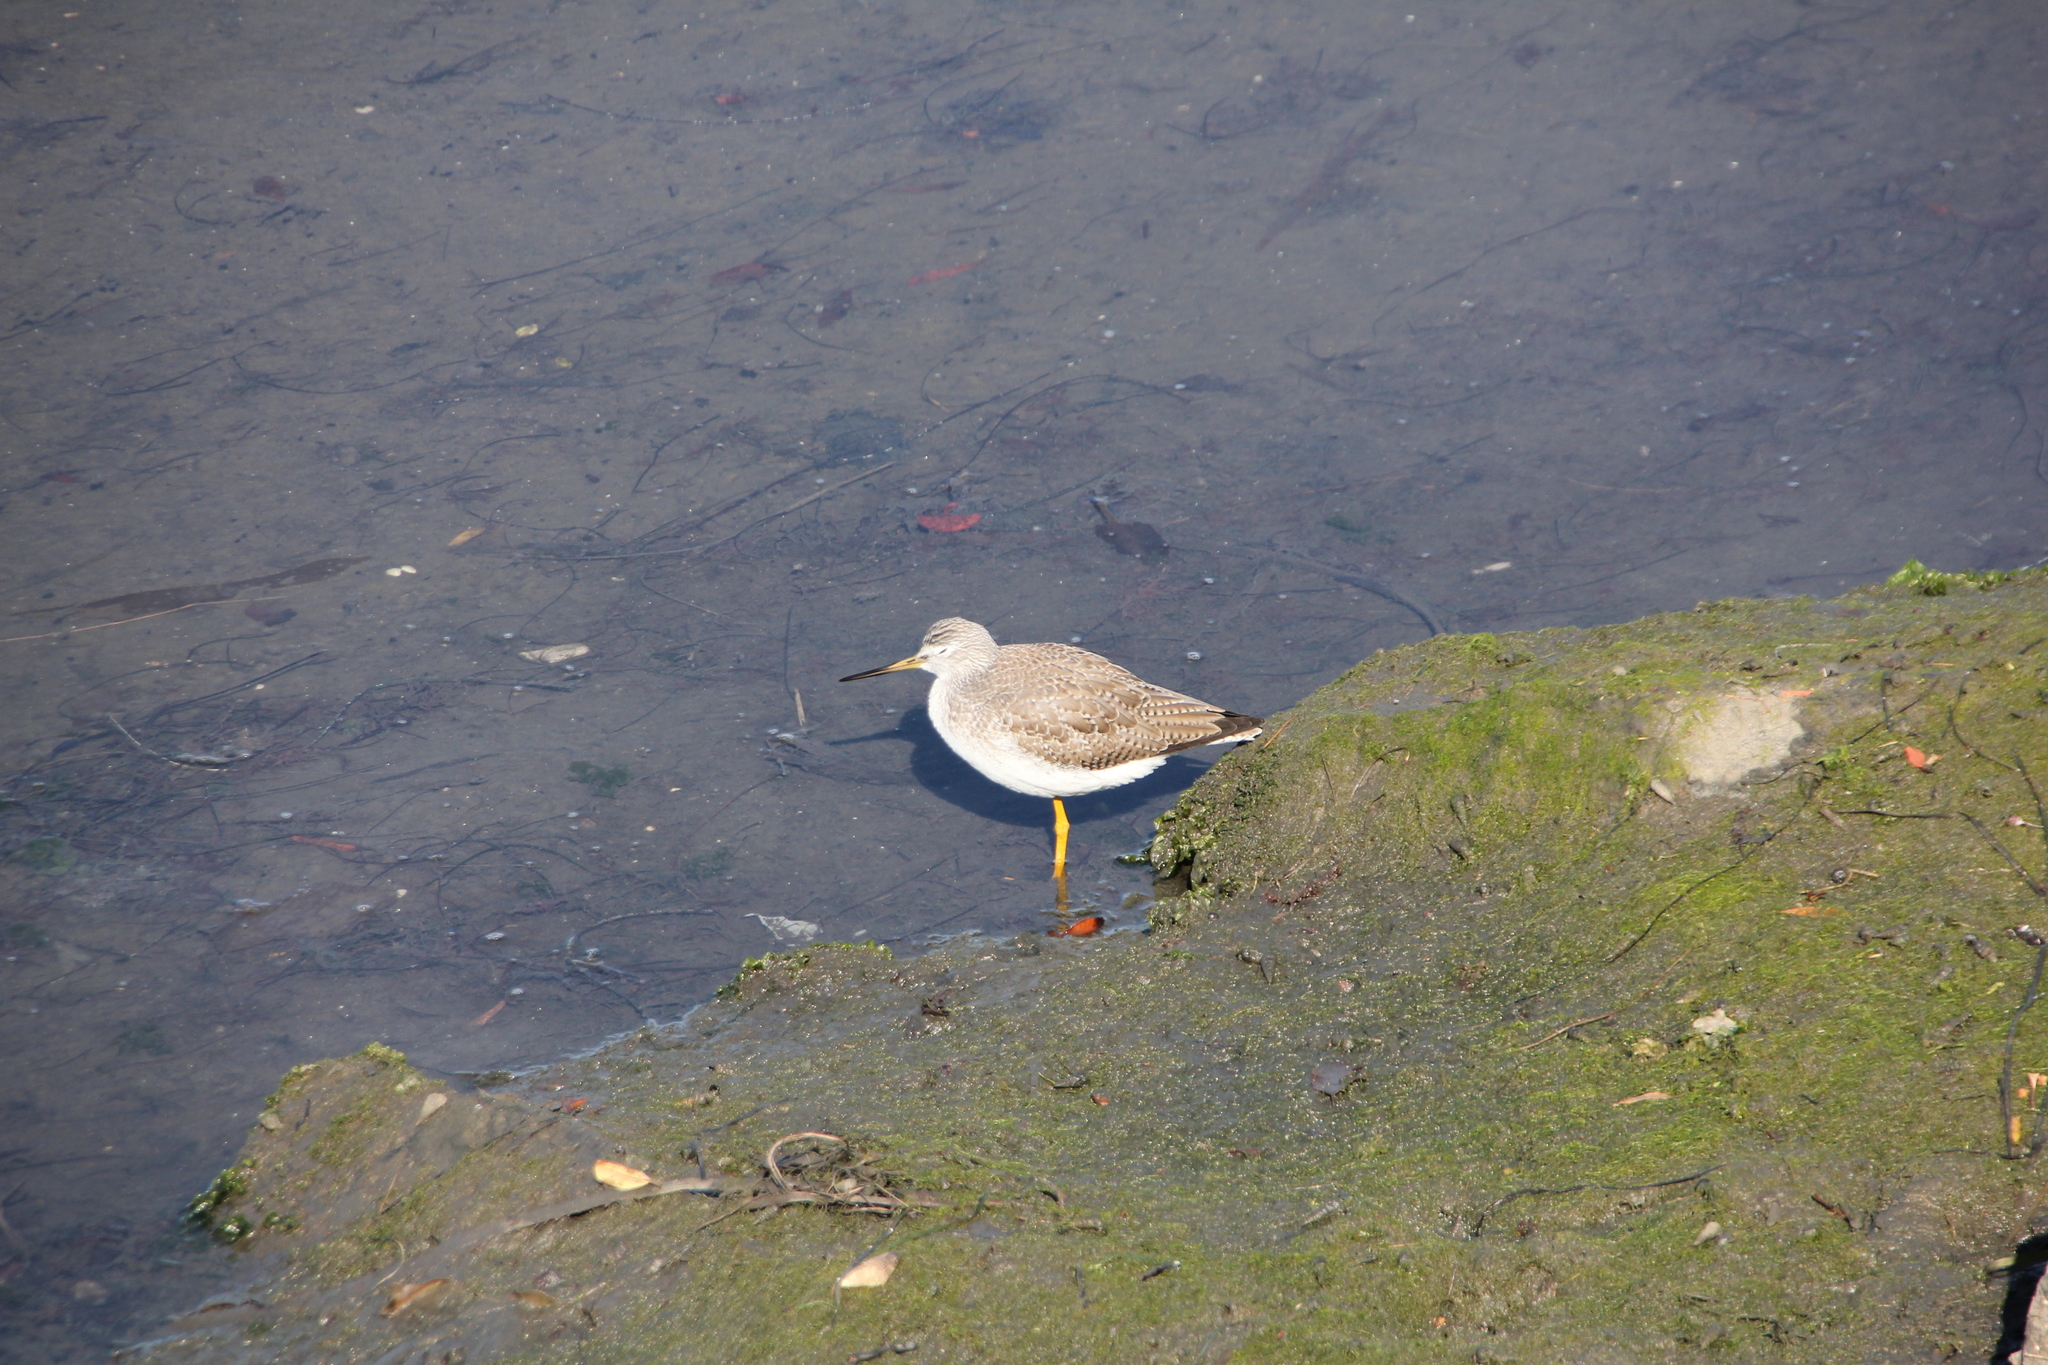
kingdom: Animalia
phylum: Chordata
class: Aves
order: Charadriiformes
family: Scolopacidae
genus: Tringa
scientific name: Tringa melanoleuca
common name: Greater yellowlegs
